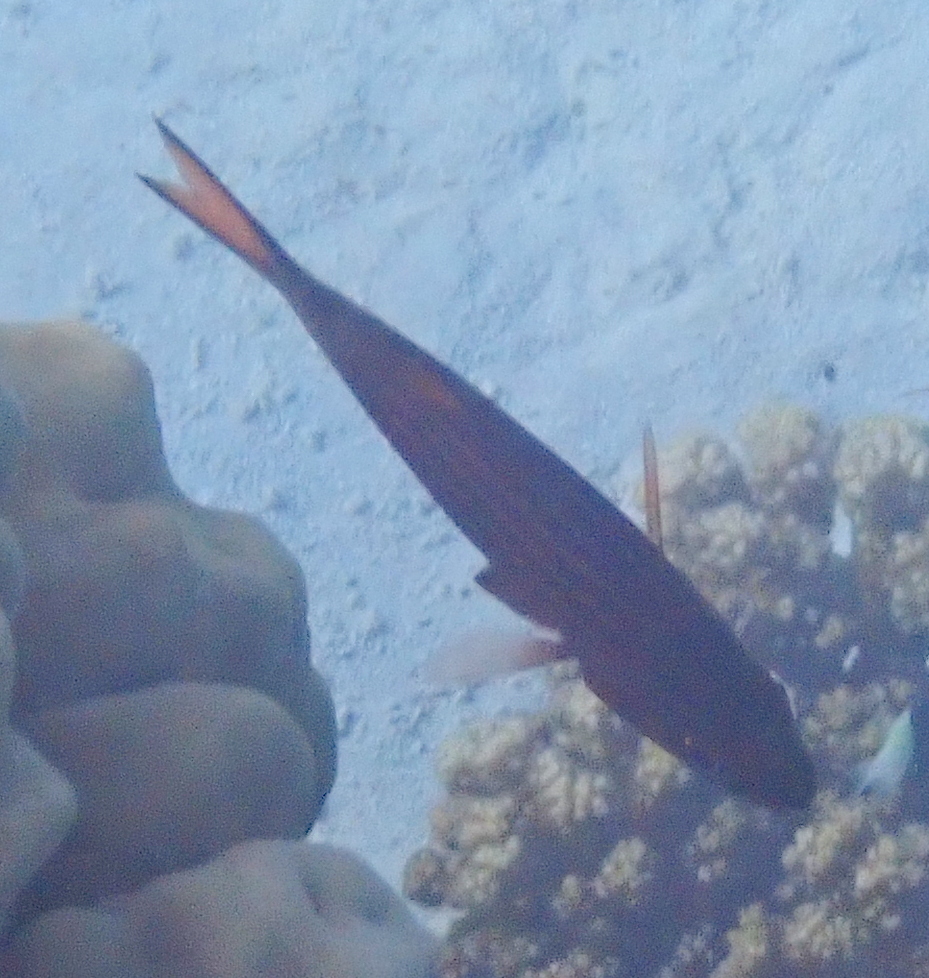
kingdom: Animalia
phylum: Chordata
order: Perciformes
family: Apogonidae
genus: Cheilodipterus
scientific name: Cheilodipterus macrodon
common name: Eight-lined cardinalfish
